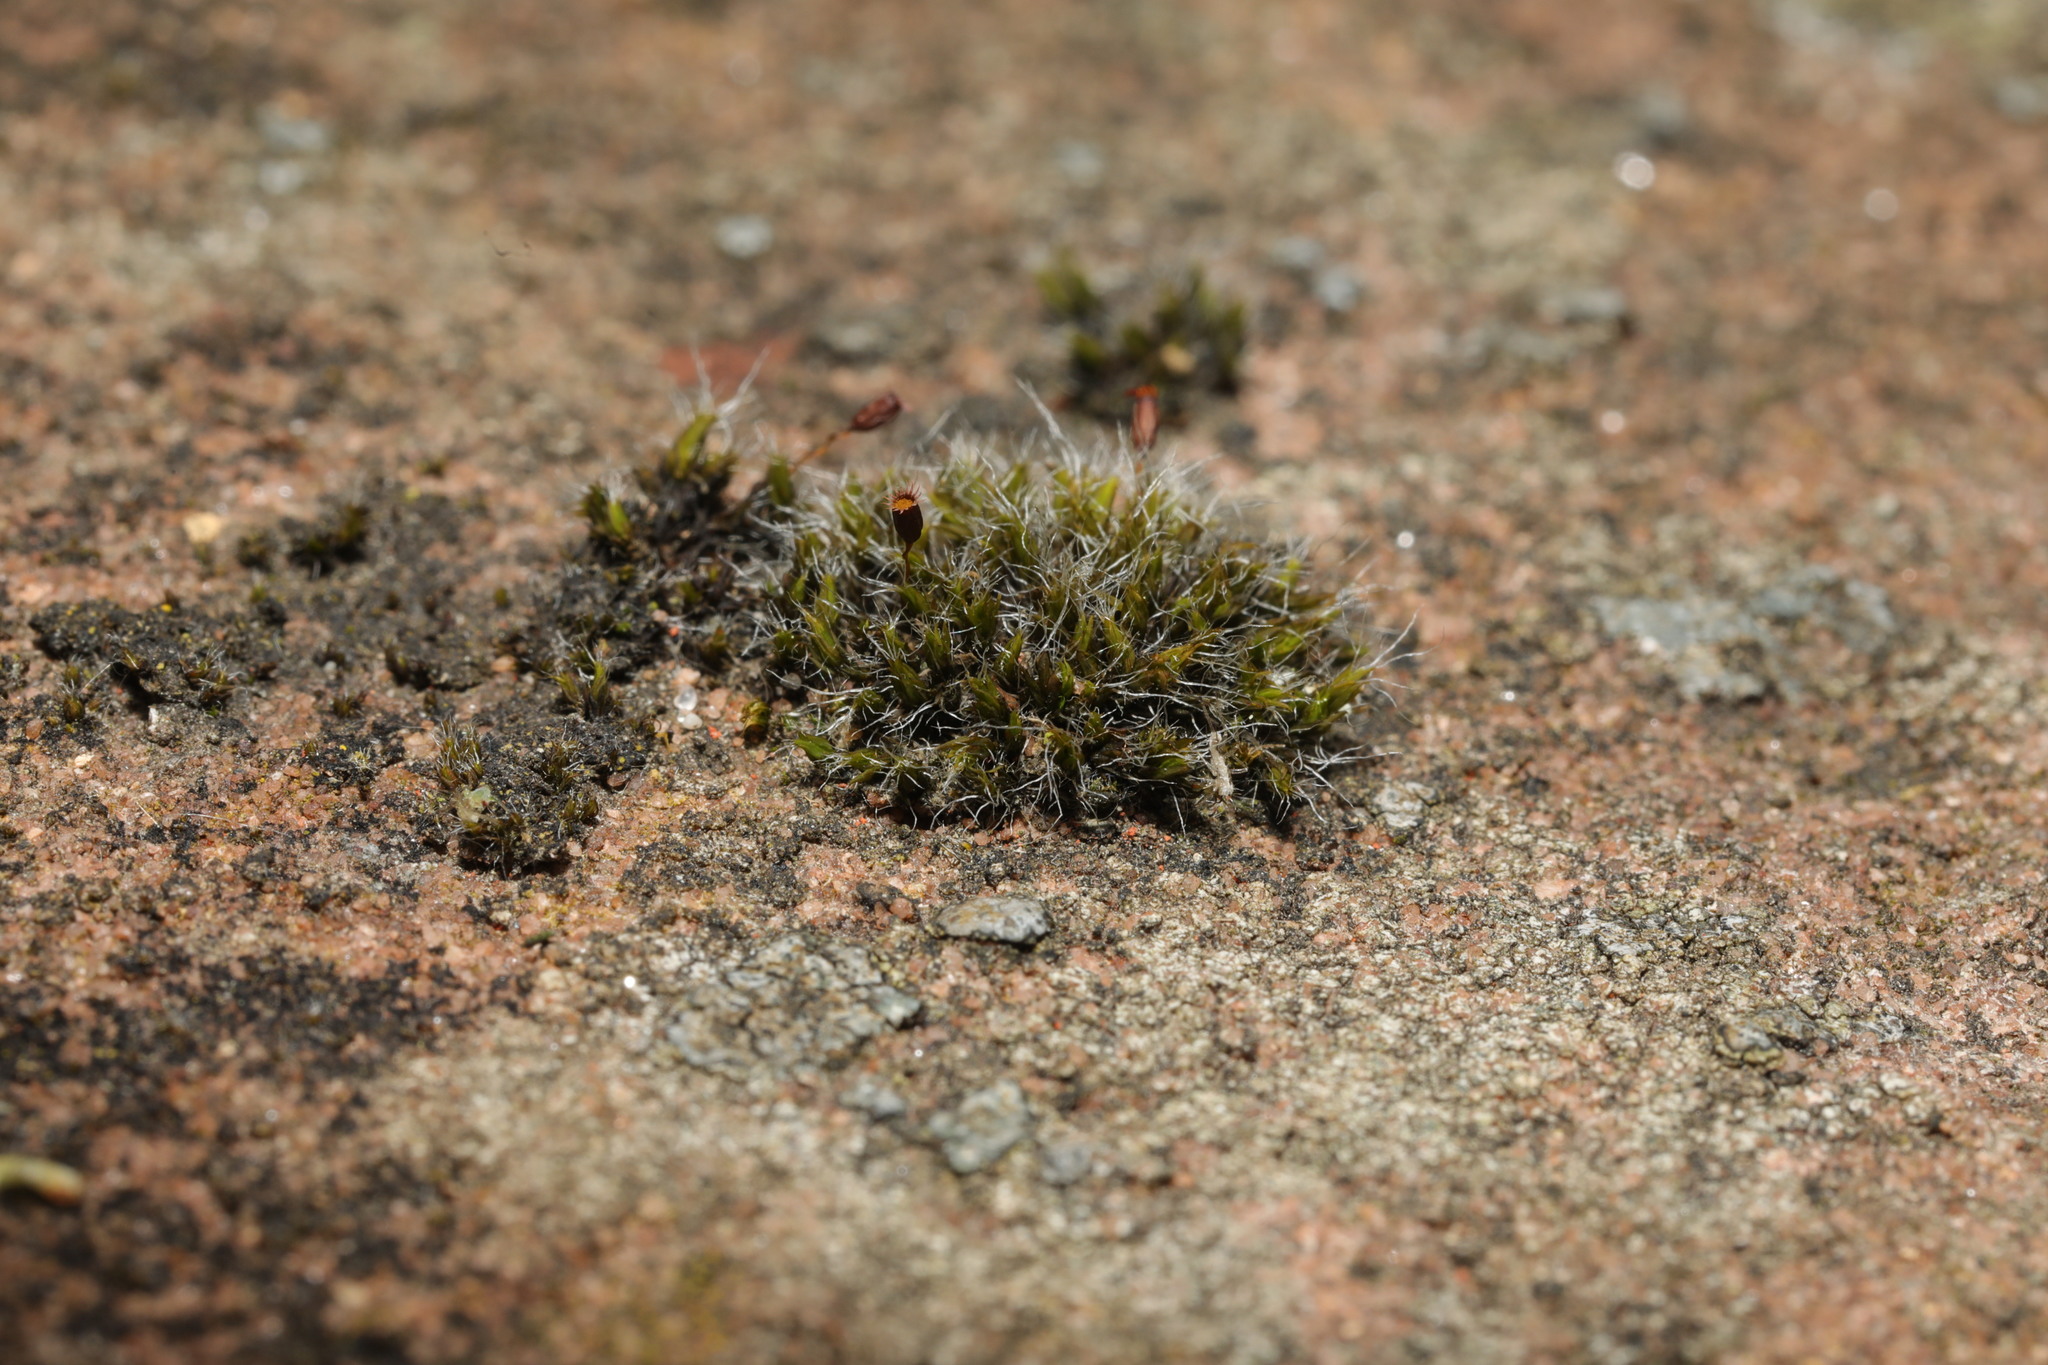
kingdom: Plantae
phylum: Bryophyta
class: Bryopsida
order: Grimmiales
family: Grimmiaceae
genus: Grimmia
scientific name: Grimmia pulvinata
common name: Grey-cushioned grimmia
